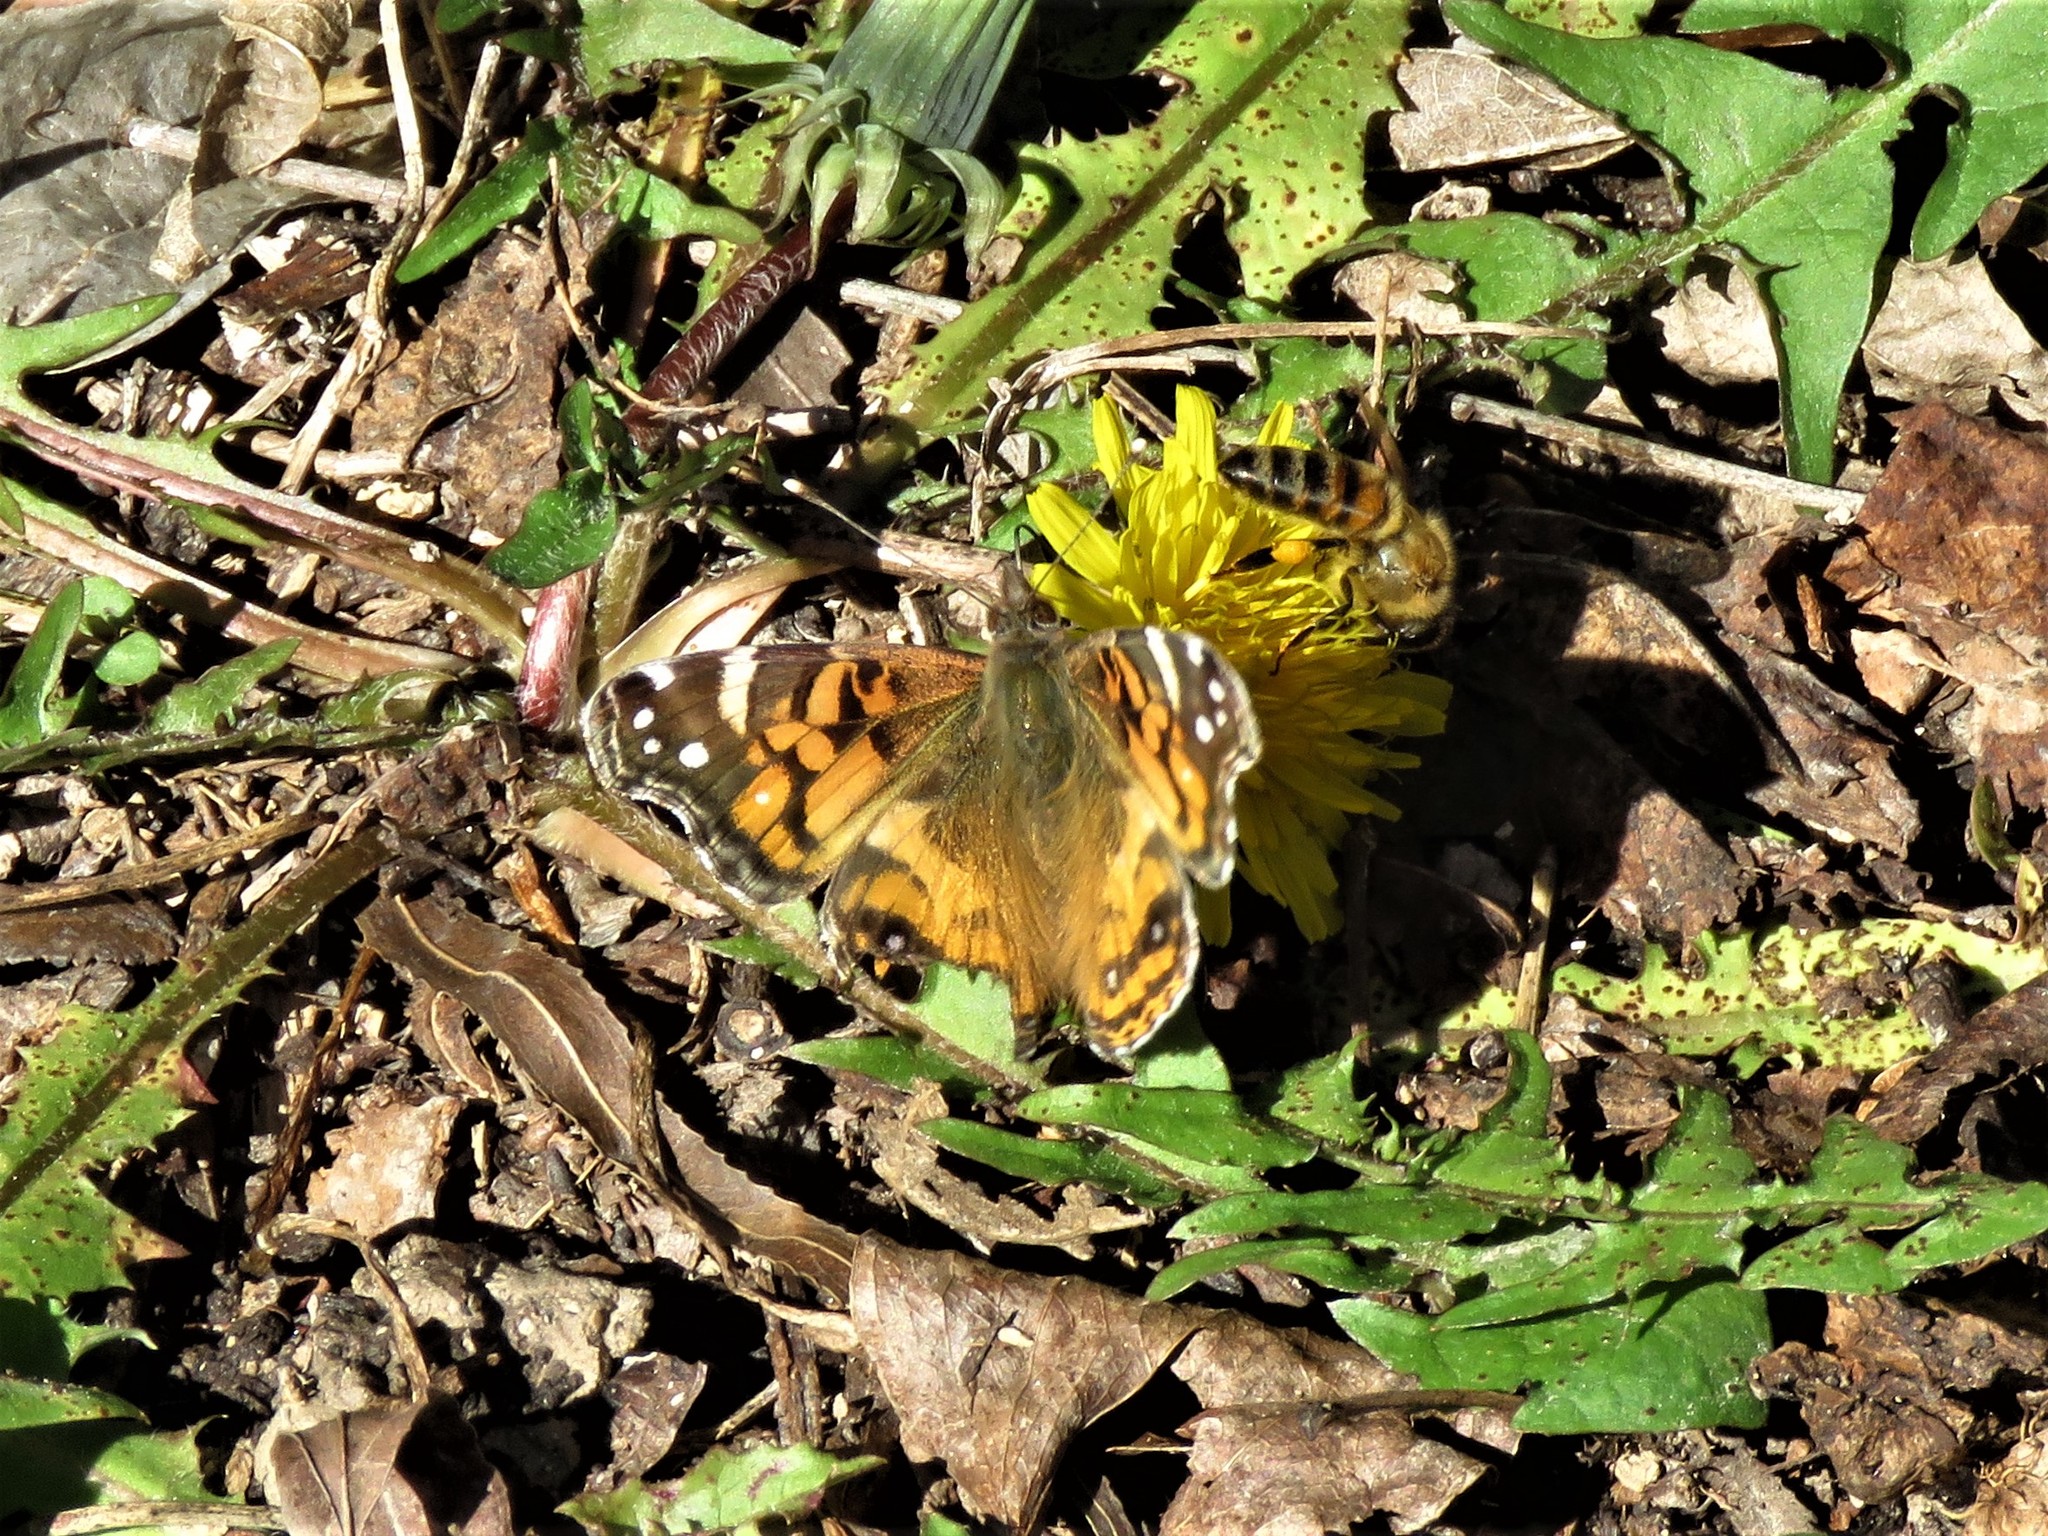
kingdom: Animalia
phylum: Arthropoda
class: Insecta
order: Lepidoptera
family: Nymphalidae
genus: Vanessa
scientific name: Vanessa virginiensis
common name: American lady
